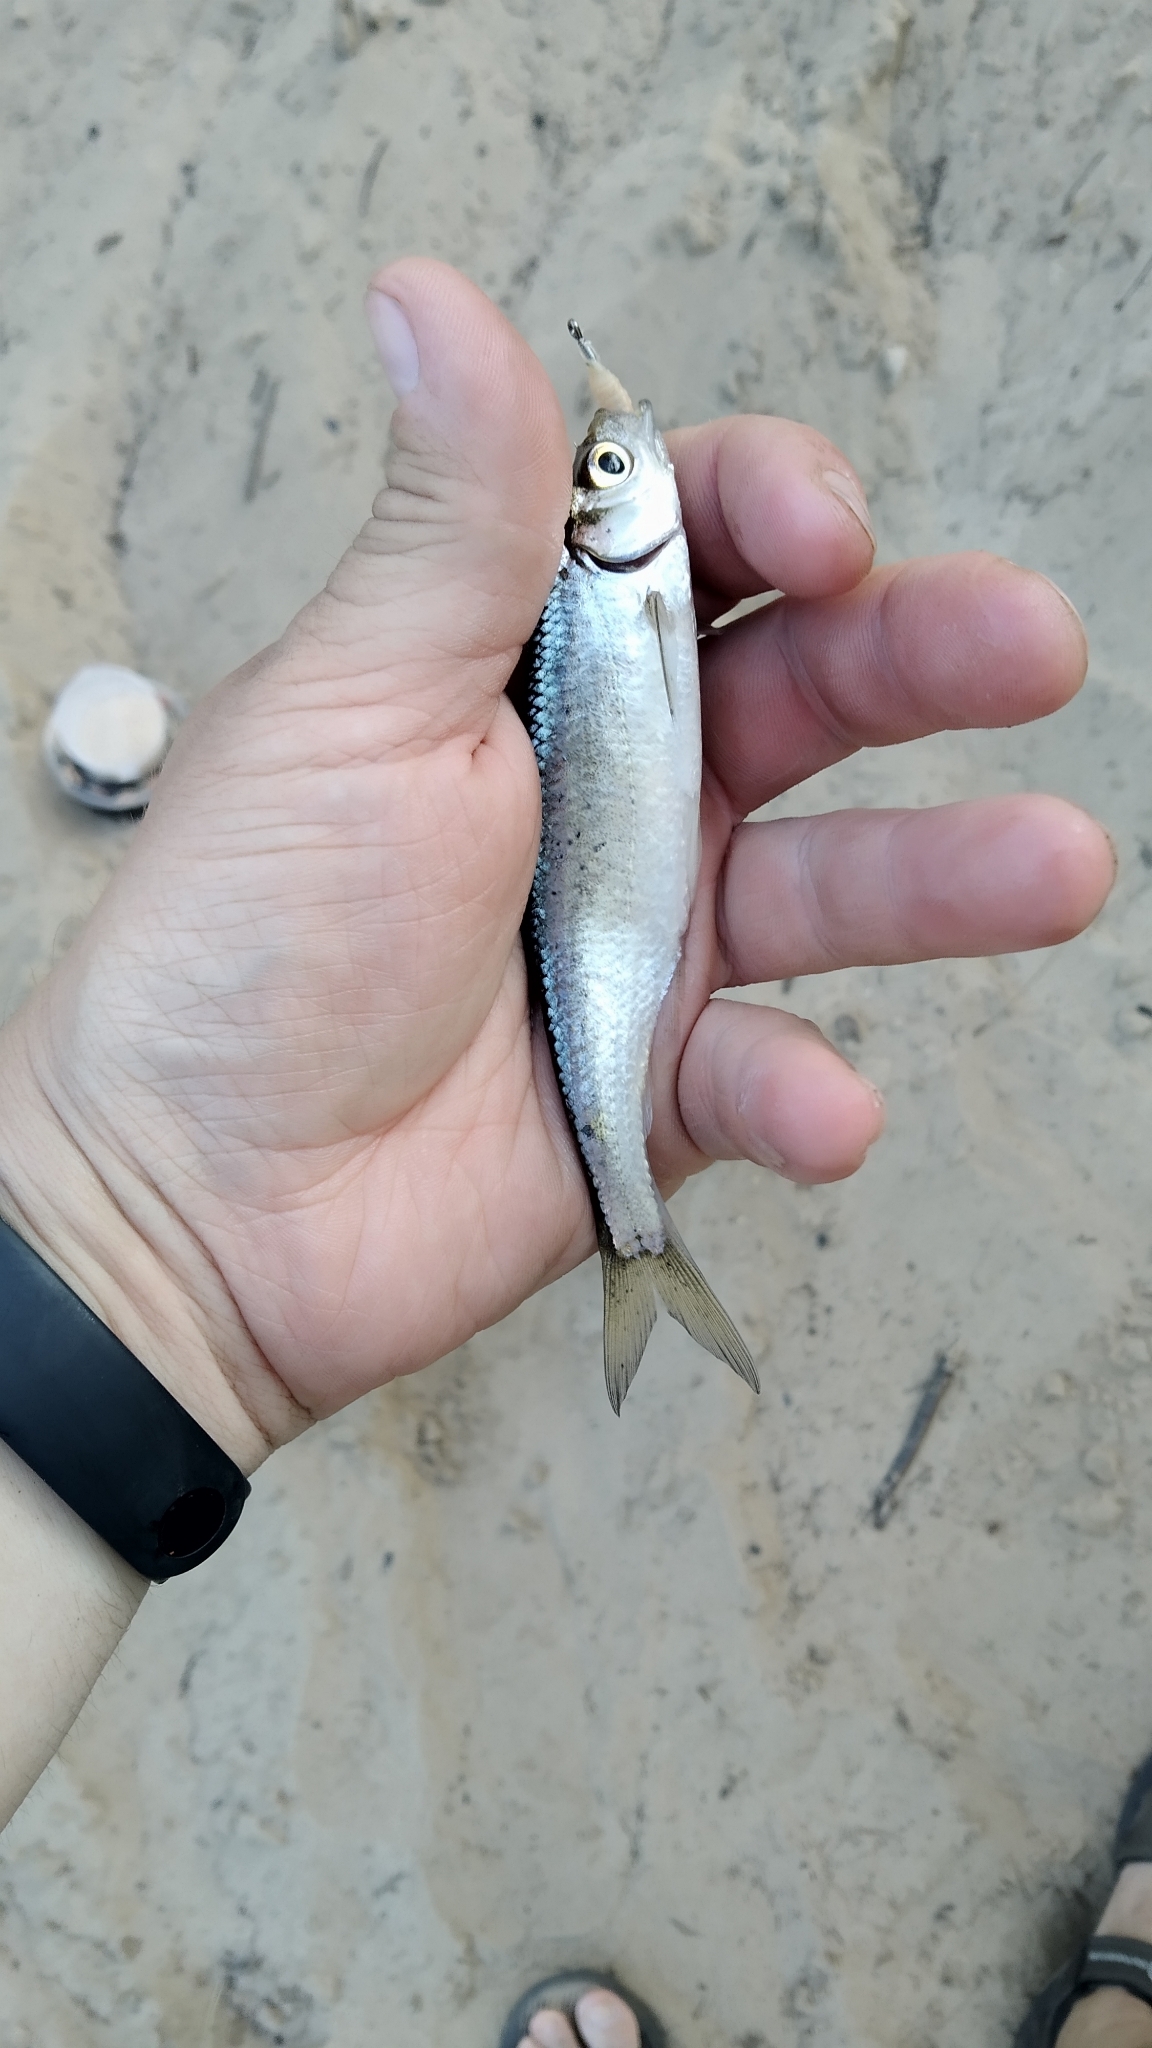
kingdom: Animalia
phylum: Chordata
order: Cypriniformes
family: Cyprinidae
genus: Alburnus
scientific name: Alburnus alburnus
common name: Bleak
